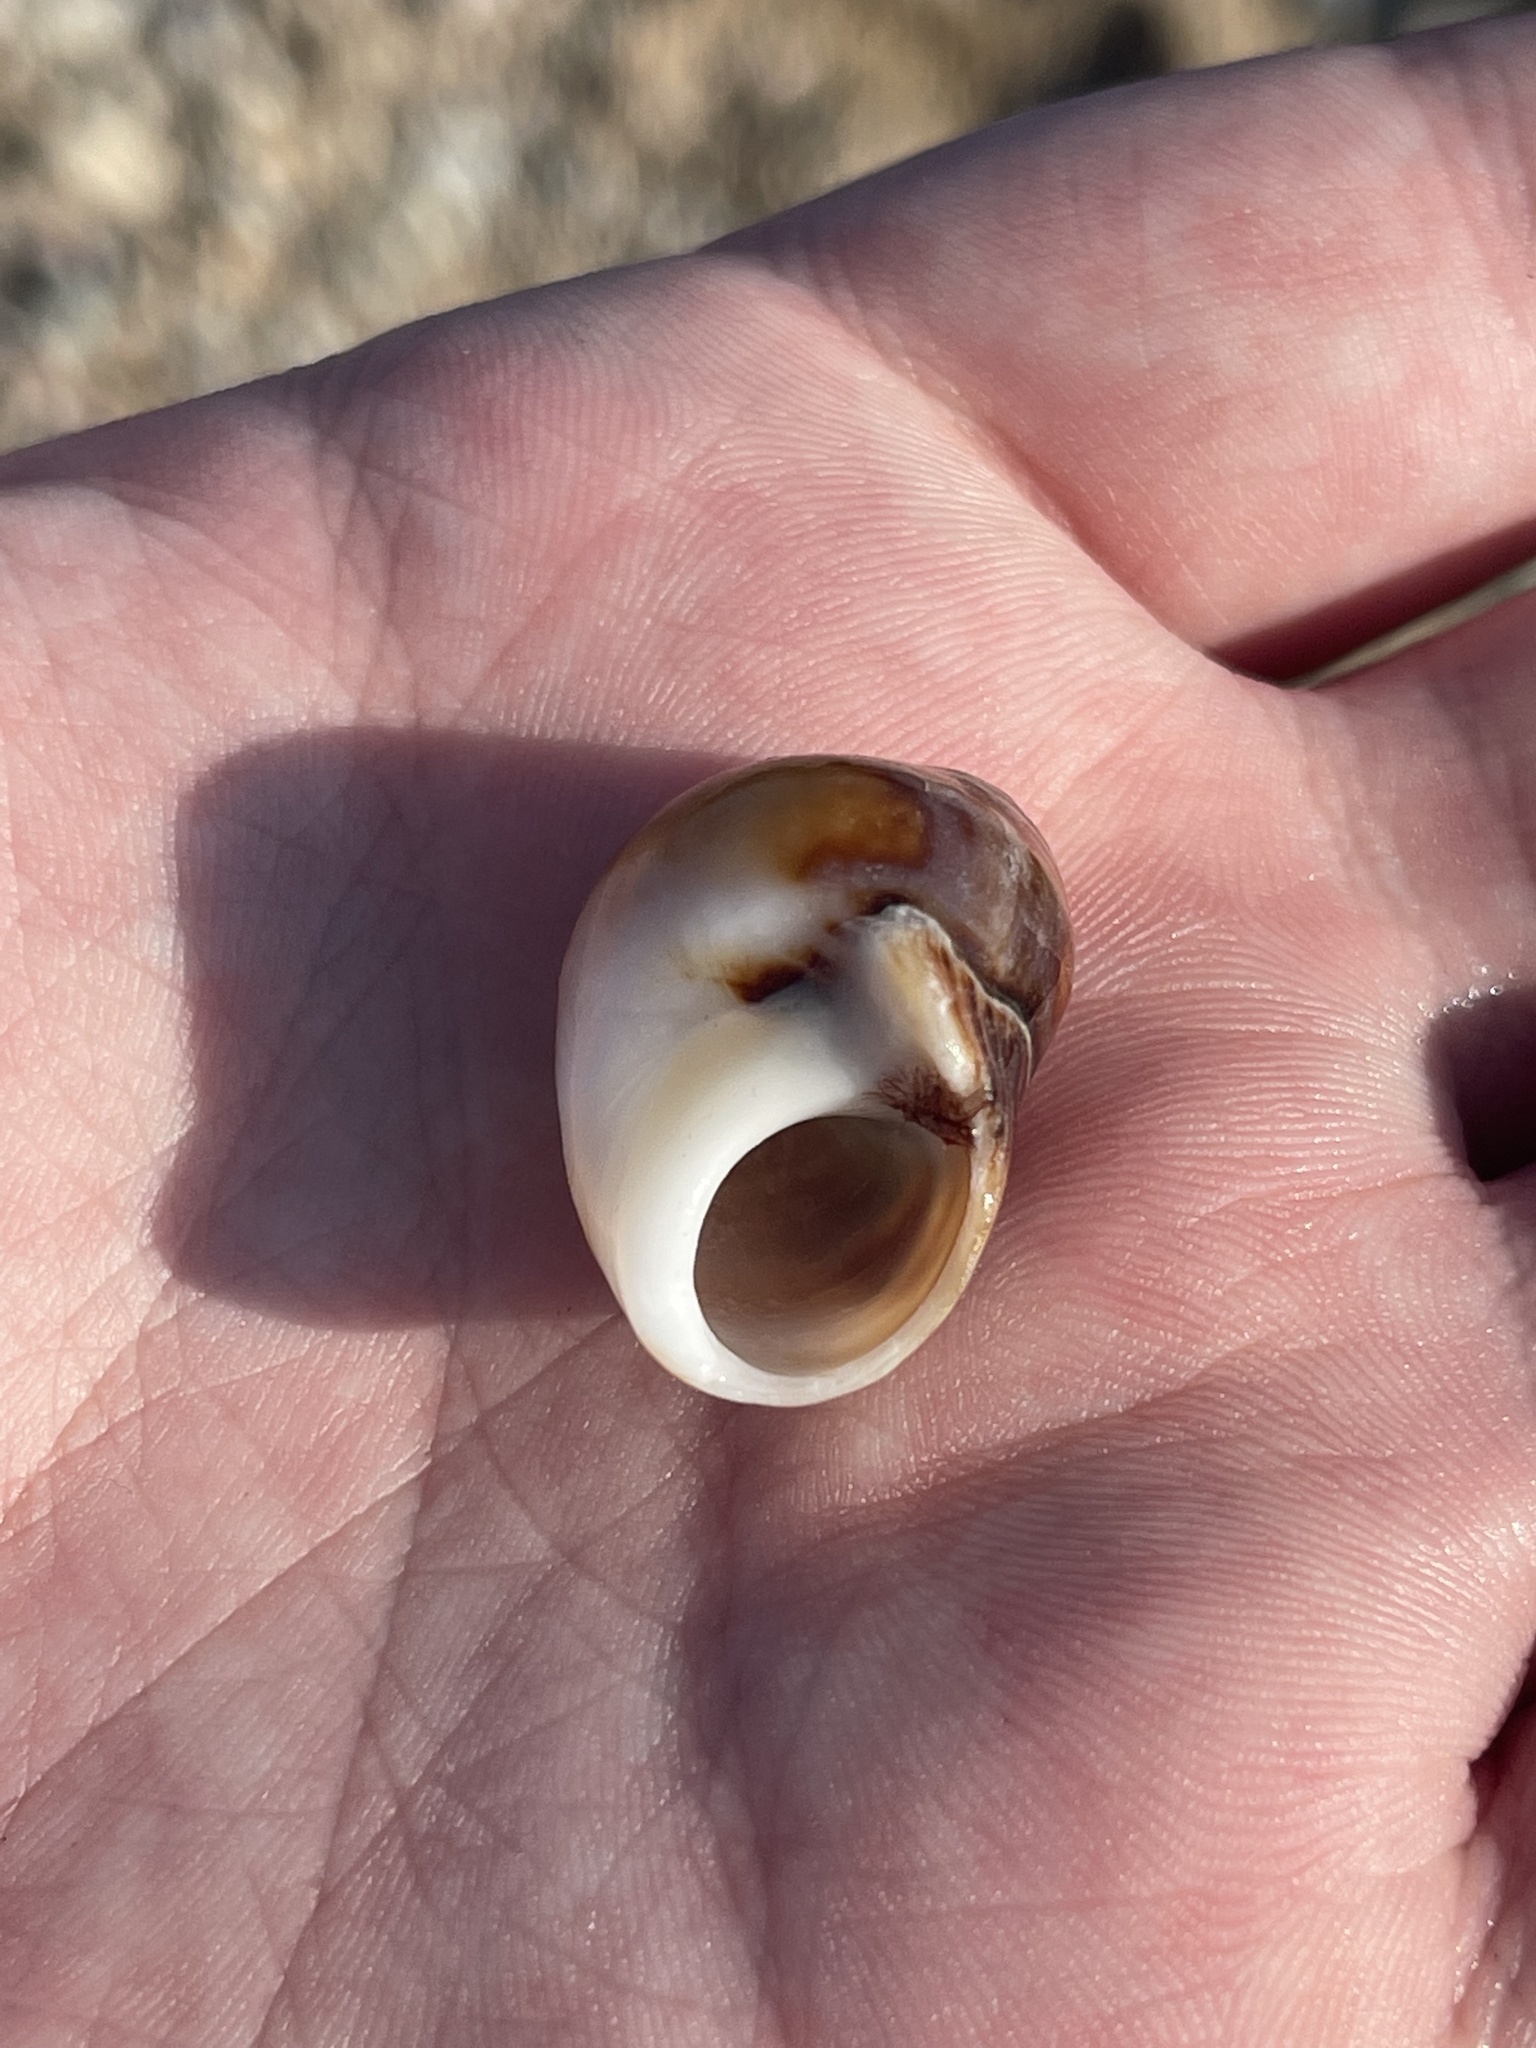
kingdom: Animalia
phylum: Mollusca
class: Gastropoda
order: Littorinimorpha
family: Littorinidae
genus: Littorina
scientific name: Littorina littorea
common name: Common periwinkle
